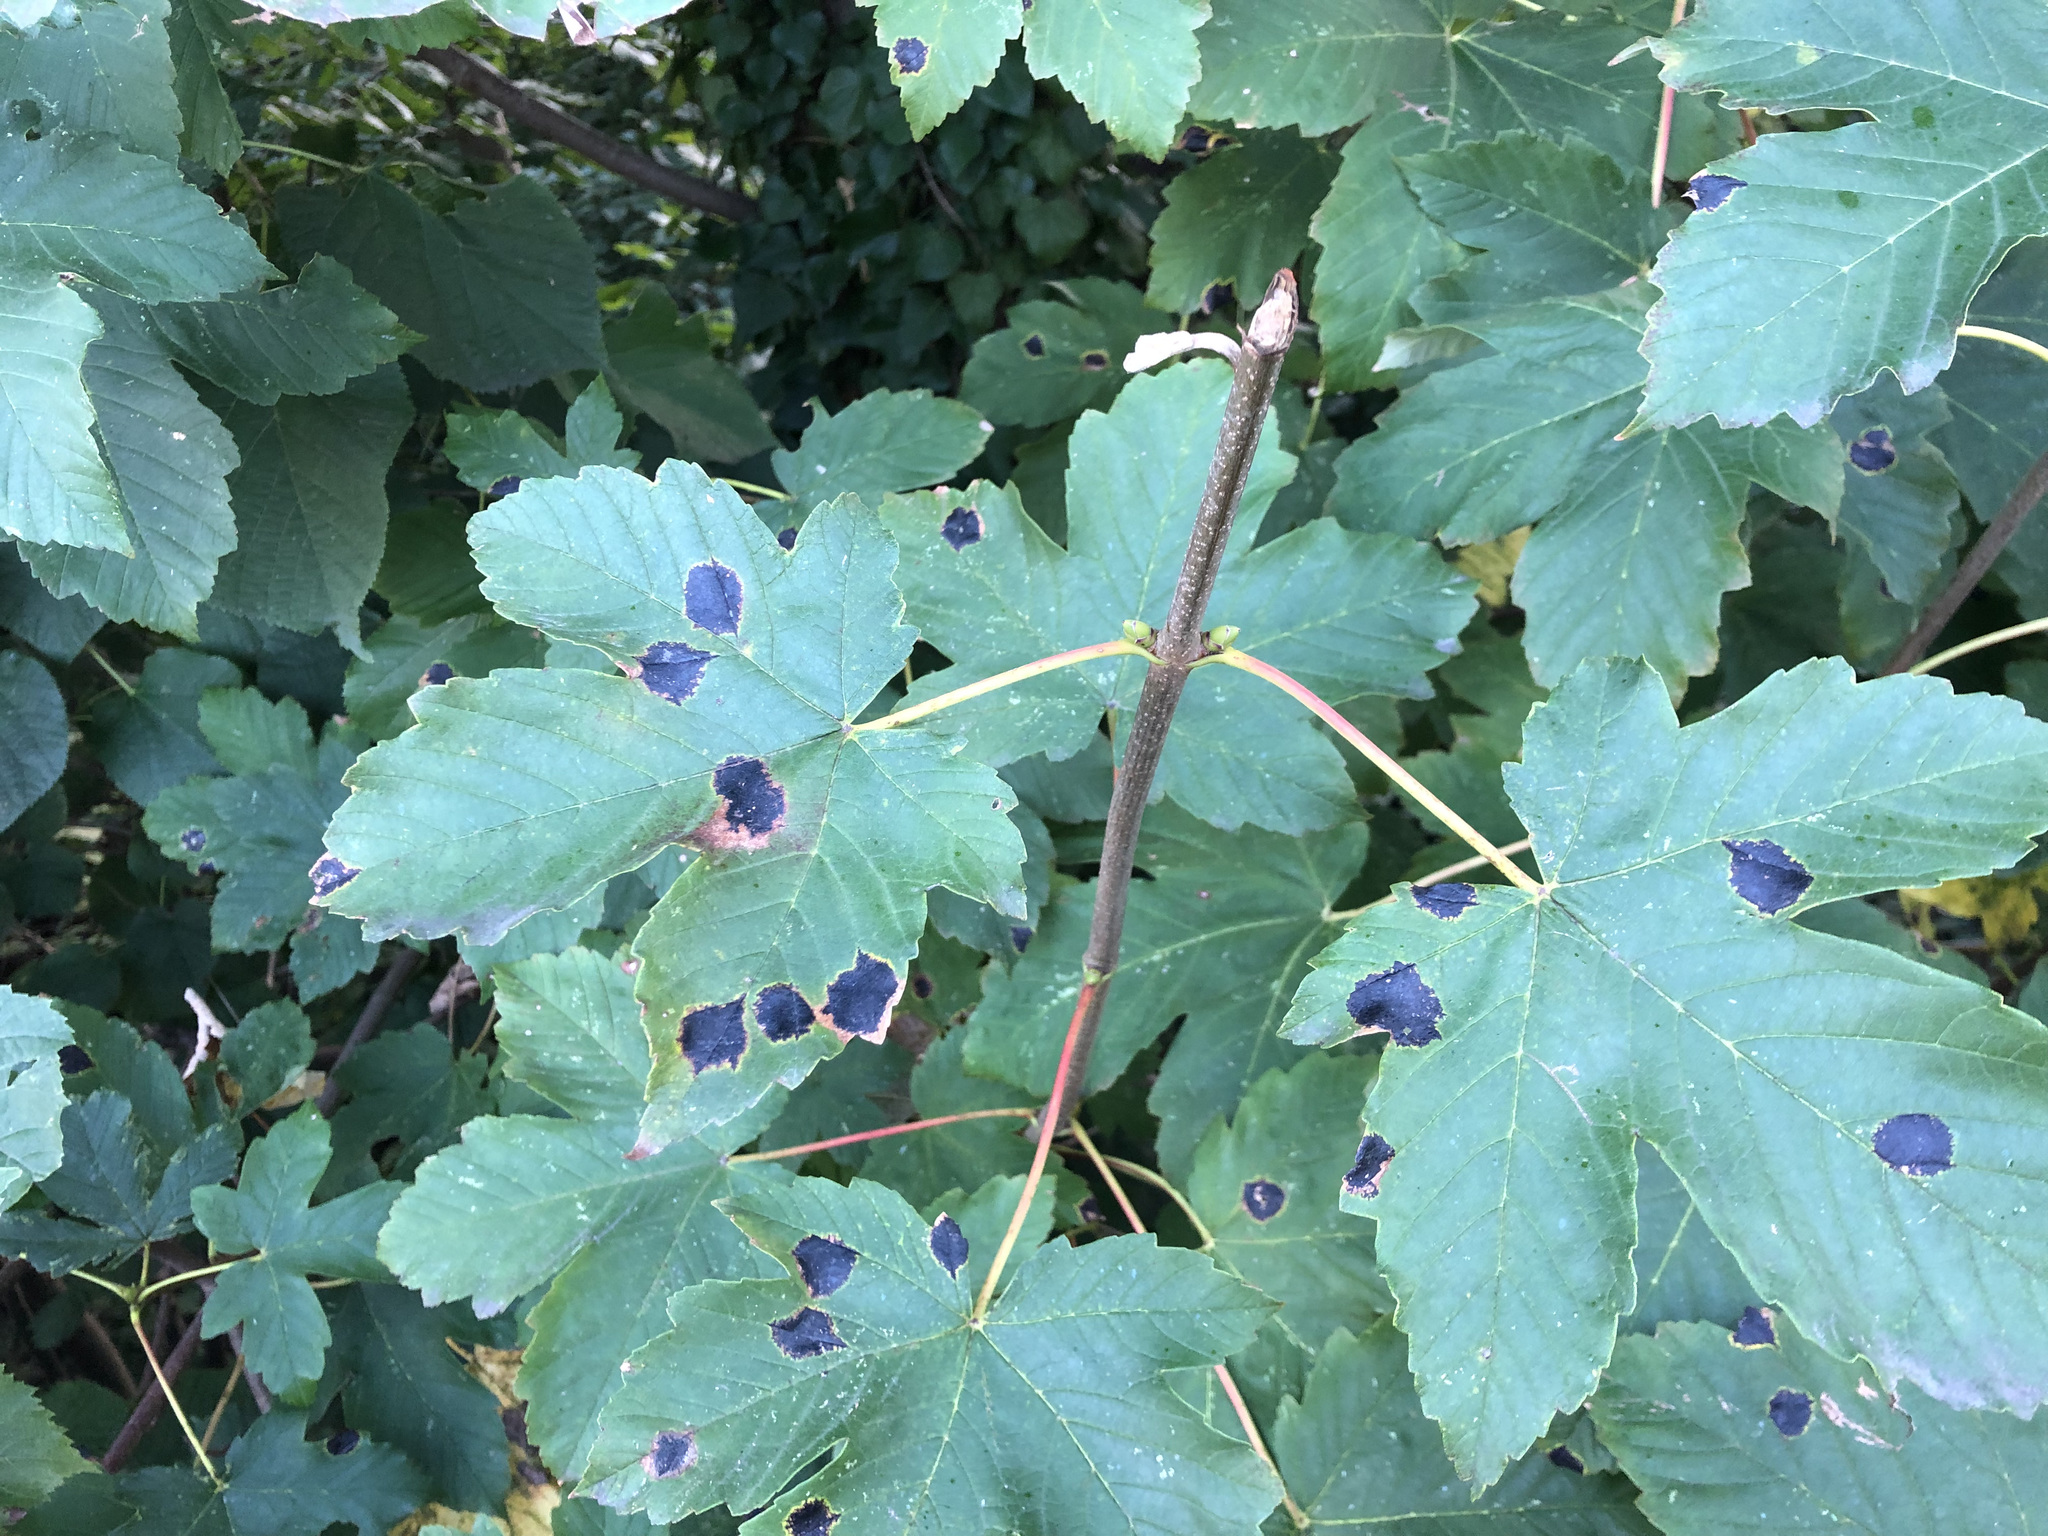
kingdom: Plantae
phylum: Tracheophyta
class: Magnoliopsida
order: Sapindales
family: Sapindaceae
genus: Acer
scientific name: Acer pseudoplatanus
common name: Sycamore
